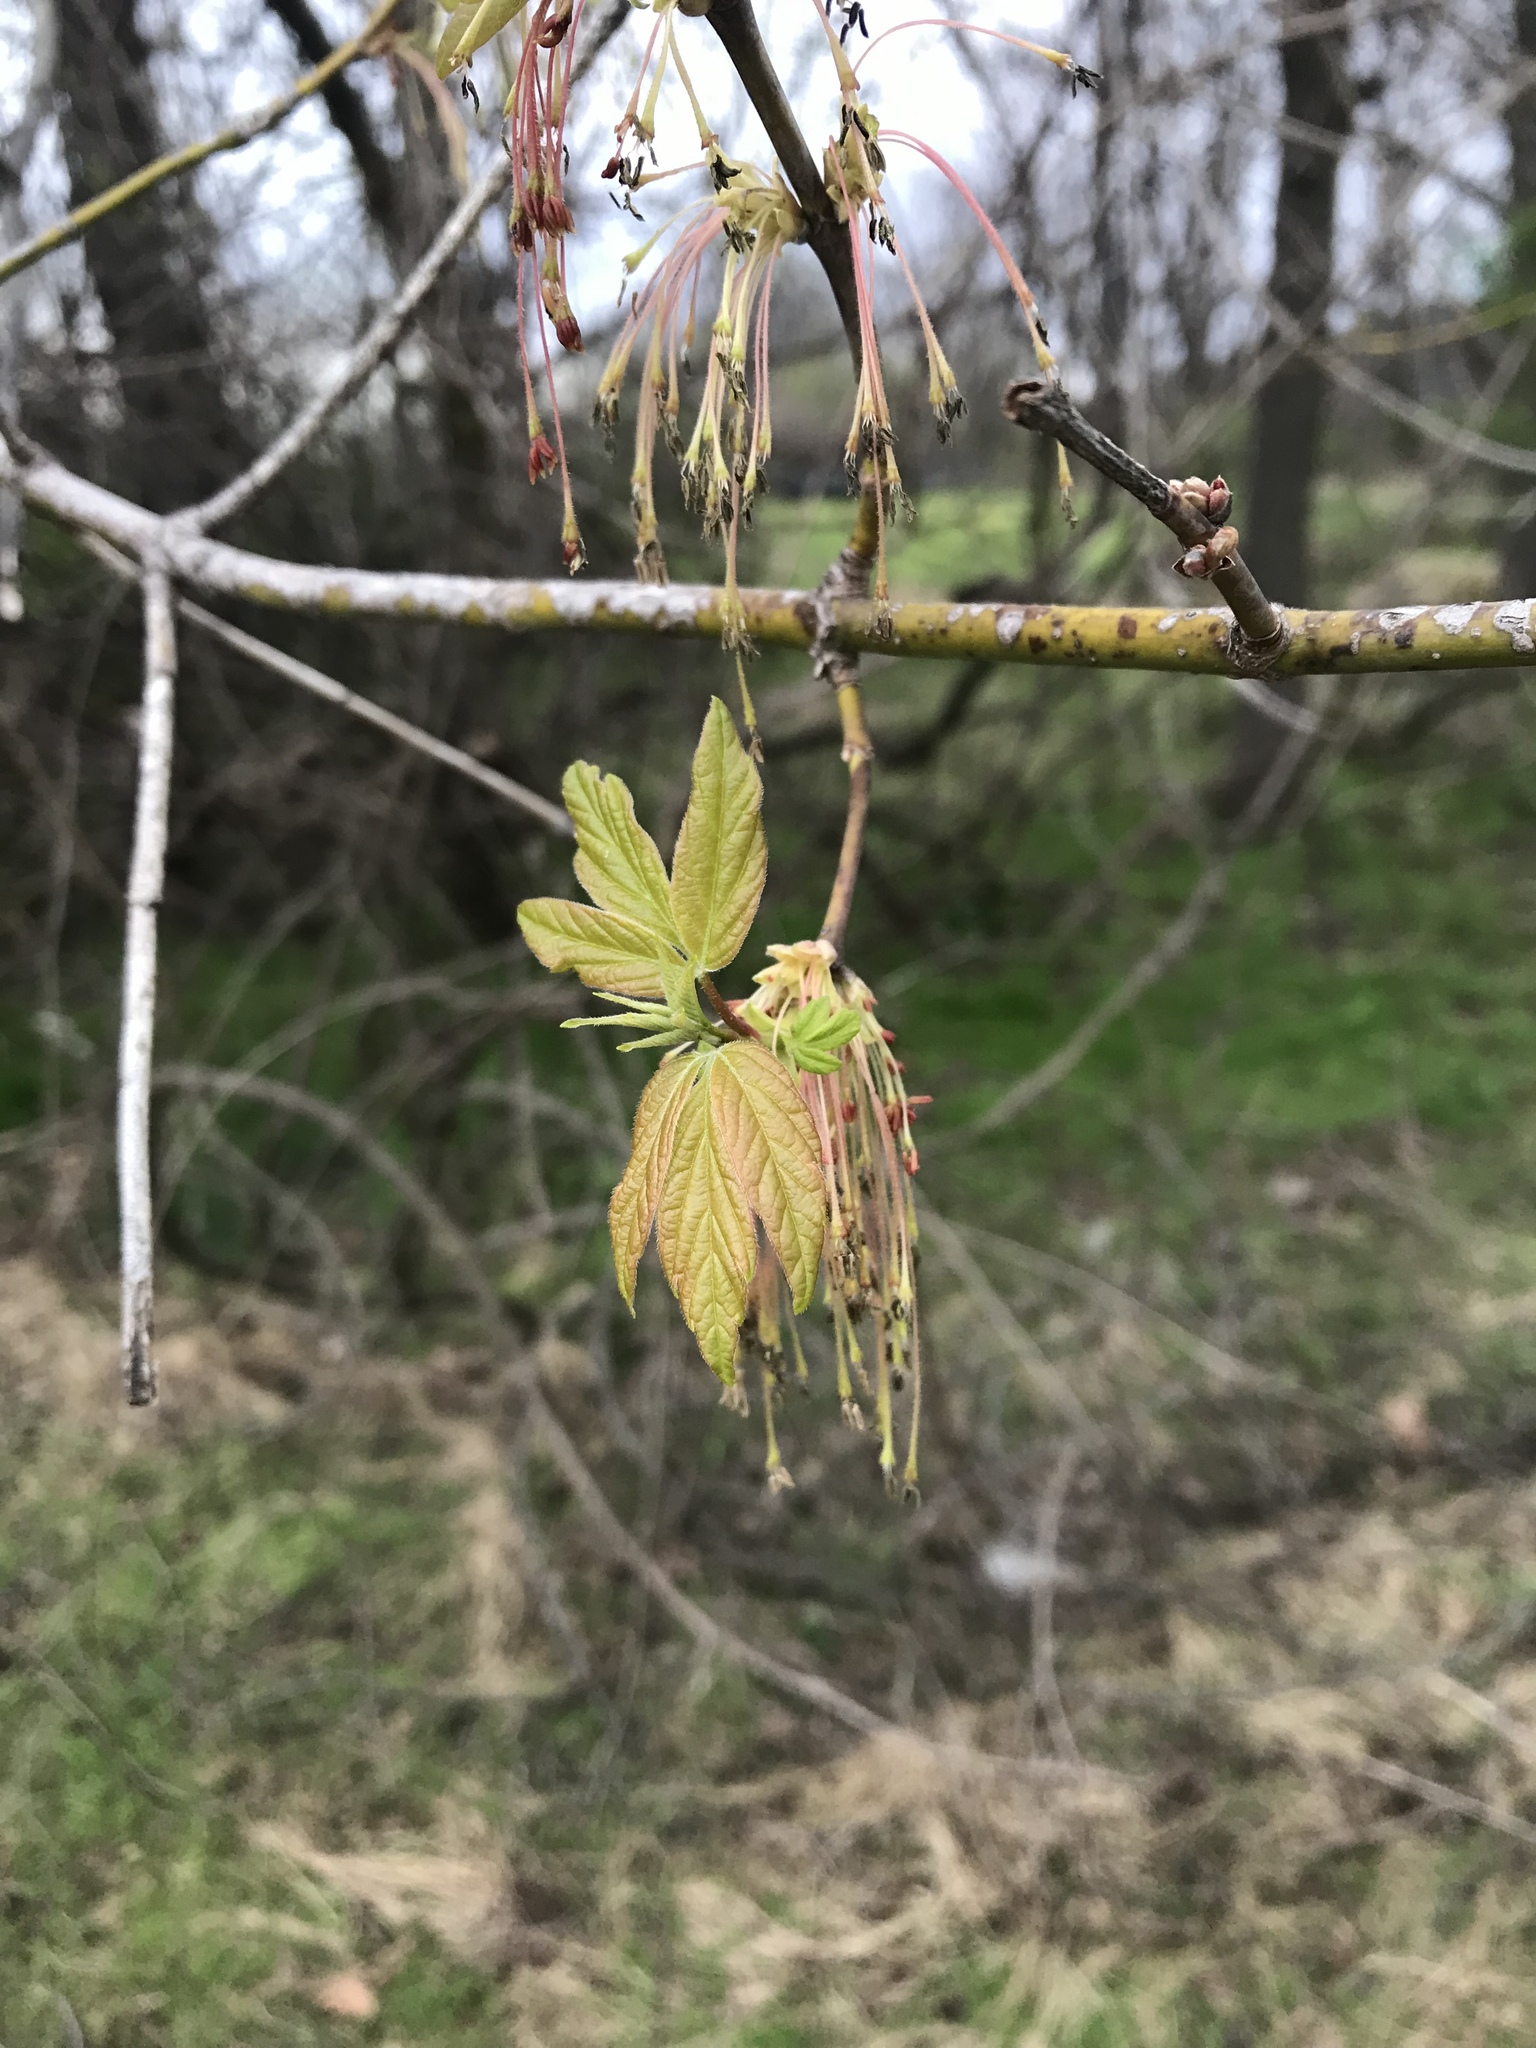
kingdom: Plantae
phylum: Tracheophyta
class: Magnoliopsida
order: Sapindales
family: Sapindaceae
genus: Acer
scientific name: Acer negundo
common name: Ashleaf maple
